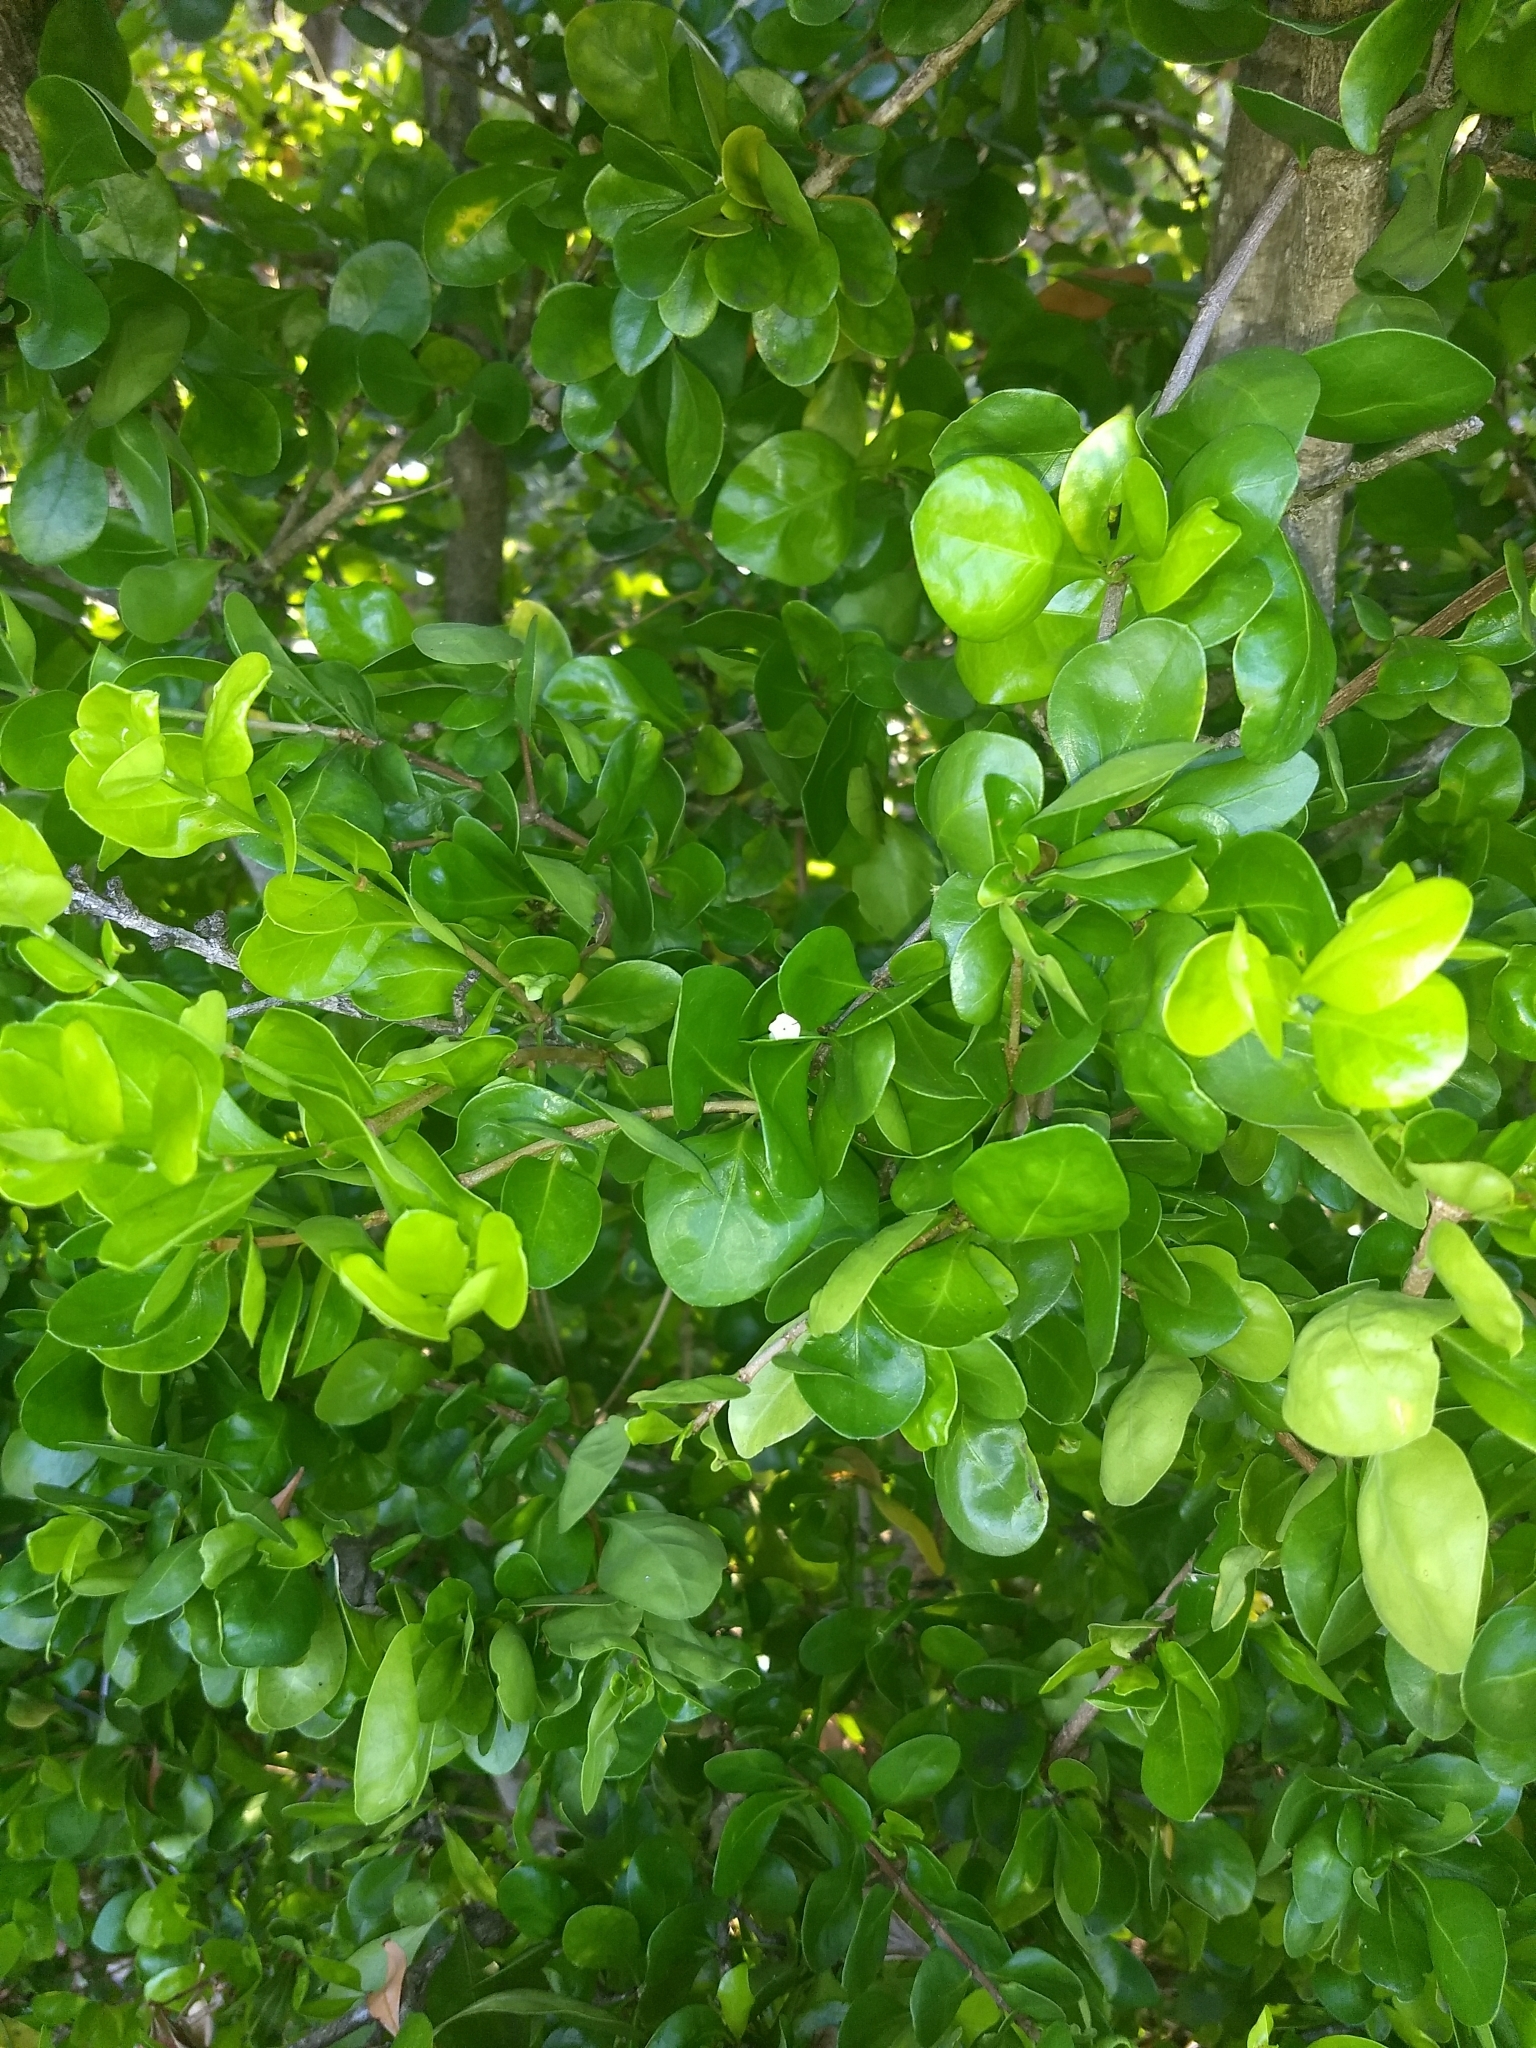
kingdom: Plantae
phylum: Tracheophyta
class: Magnoliopsida
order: Gentianales
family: Rubiaceae
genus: Randia
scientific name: Randia aculeata
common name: Inkberry
